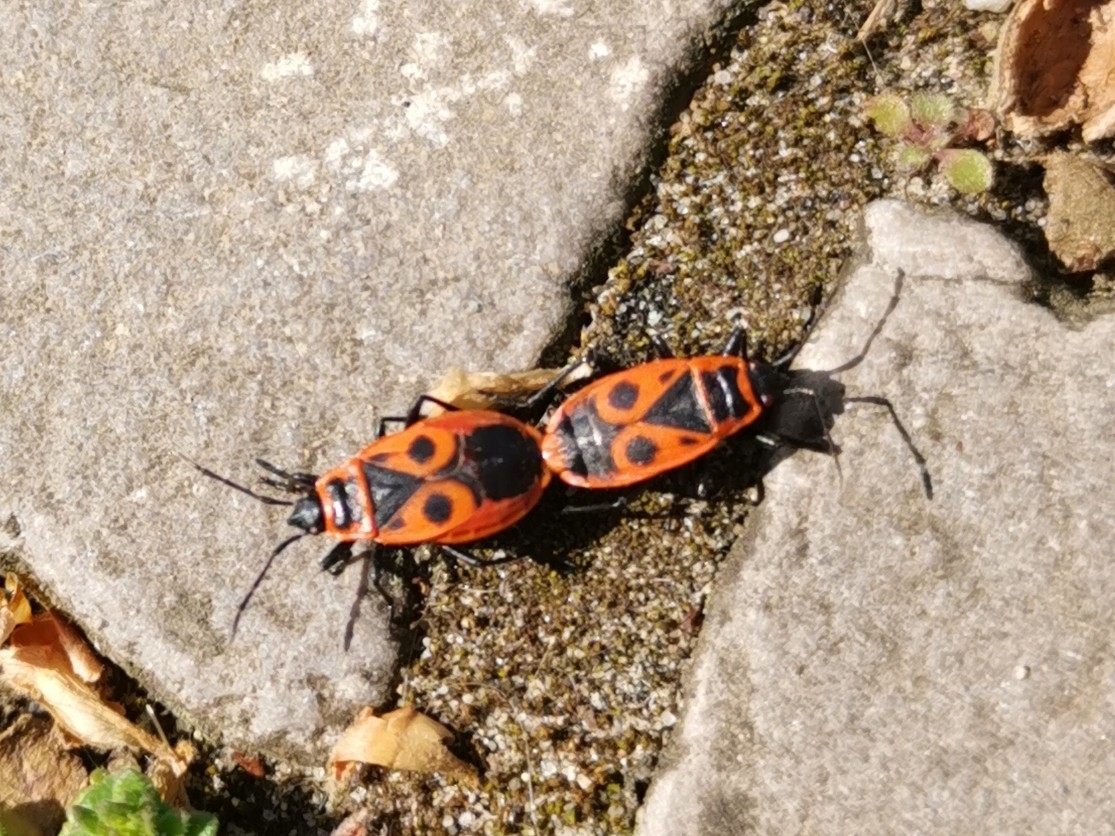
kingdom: Animalia
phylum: Arthropoda
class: Insecta
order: Hemiptera
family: Pyrrhocoridae
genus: Pyrrhocoris
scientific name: Pyrrhocoris apterus
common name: Firebug
